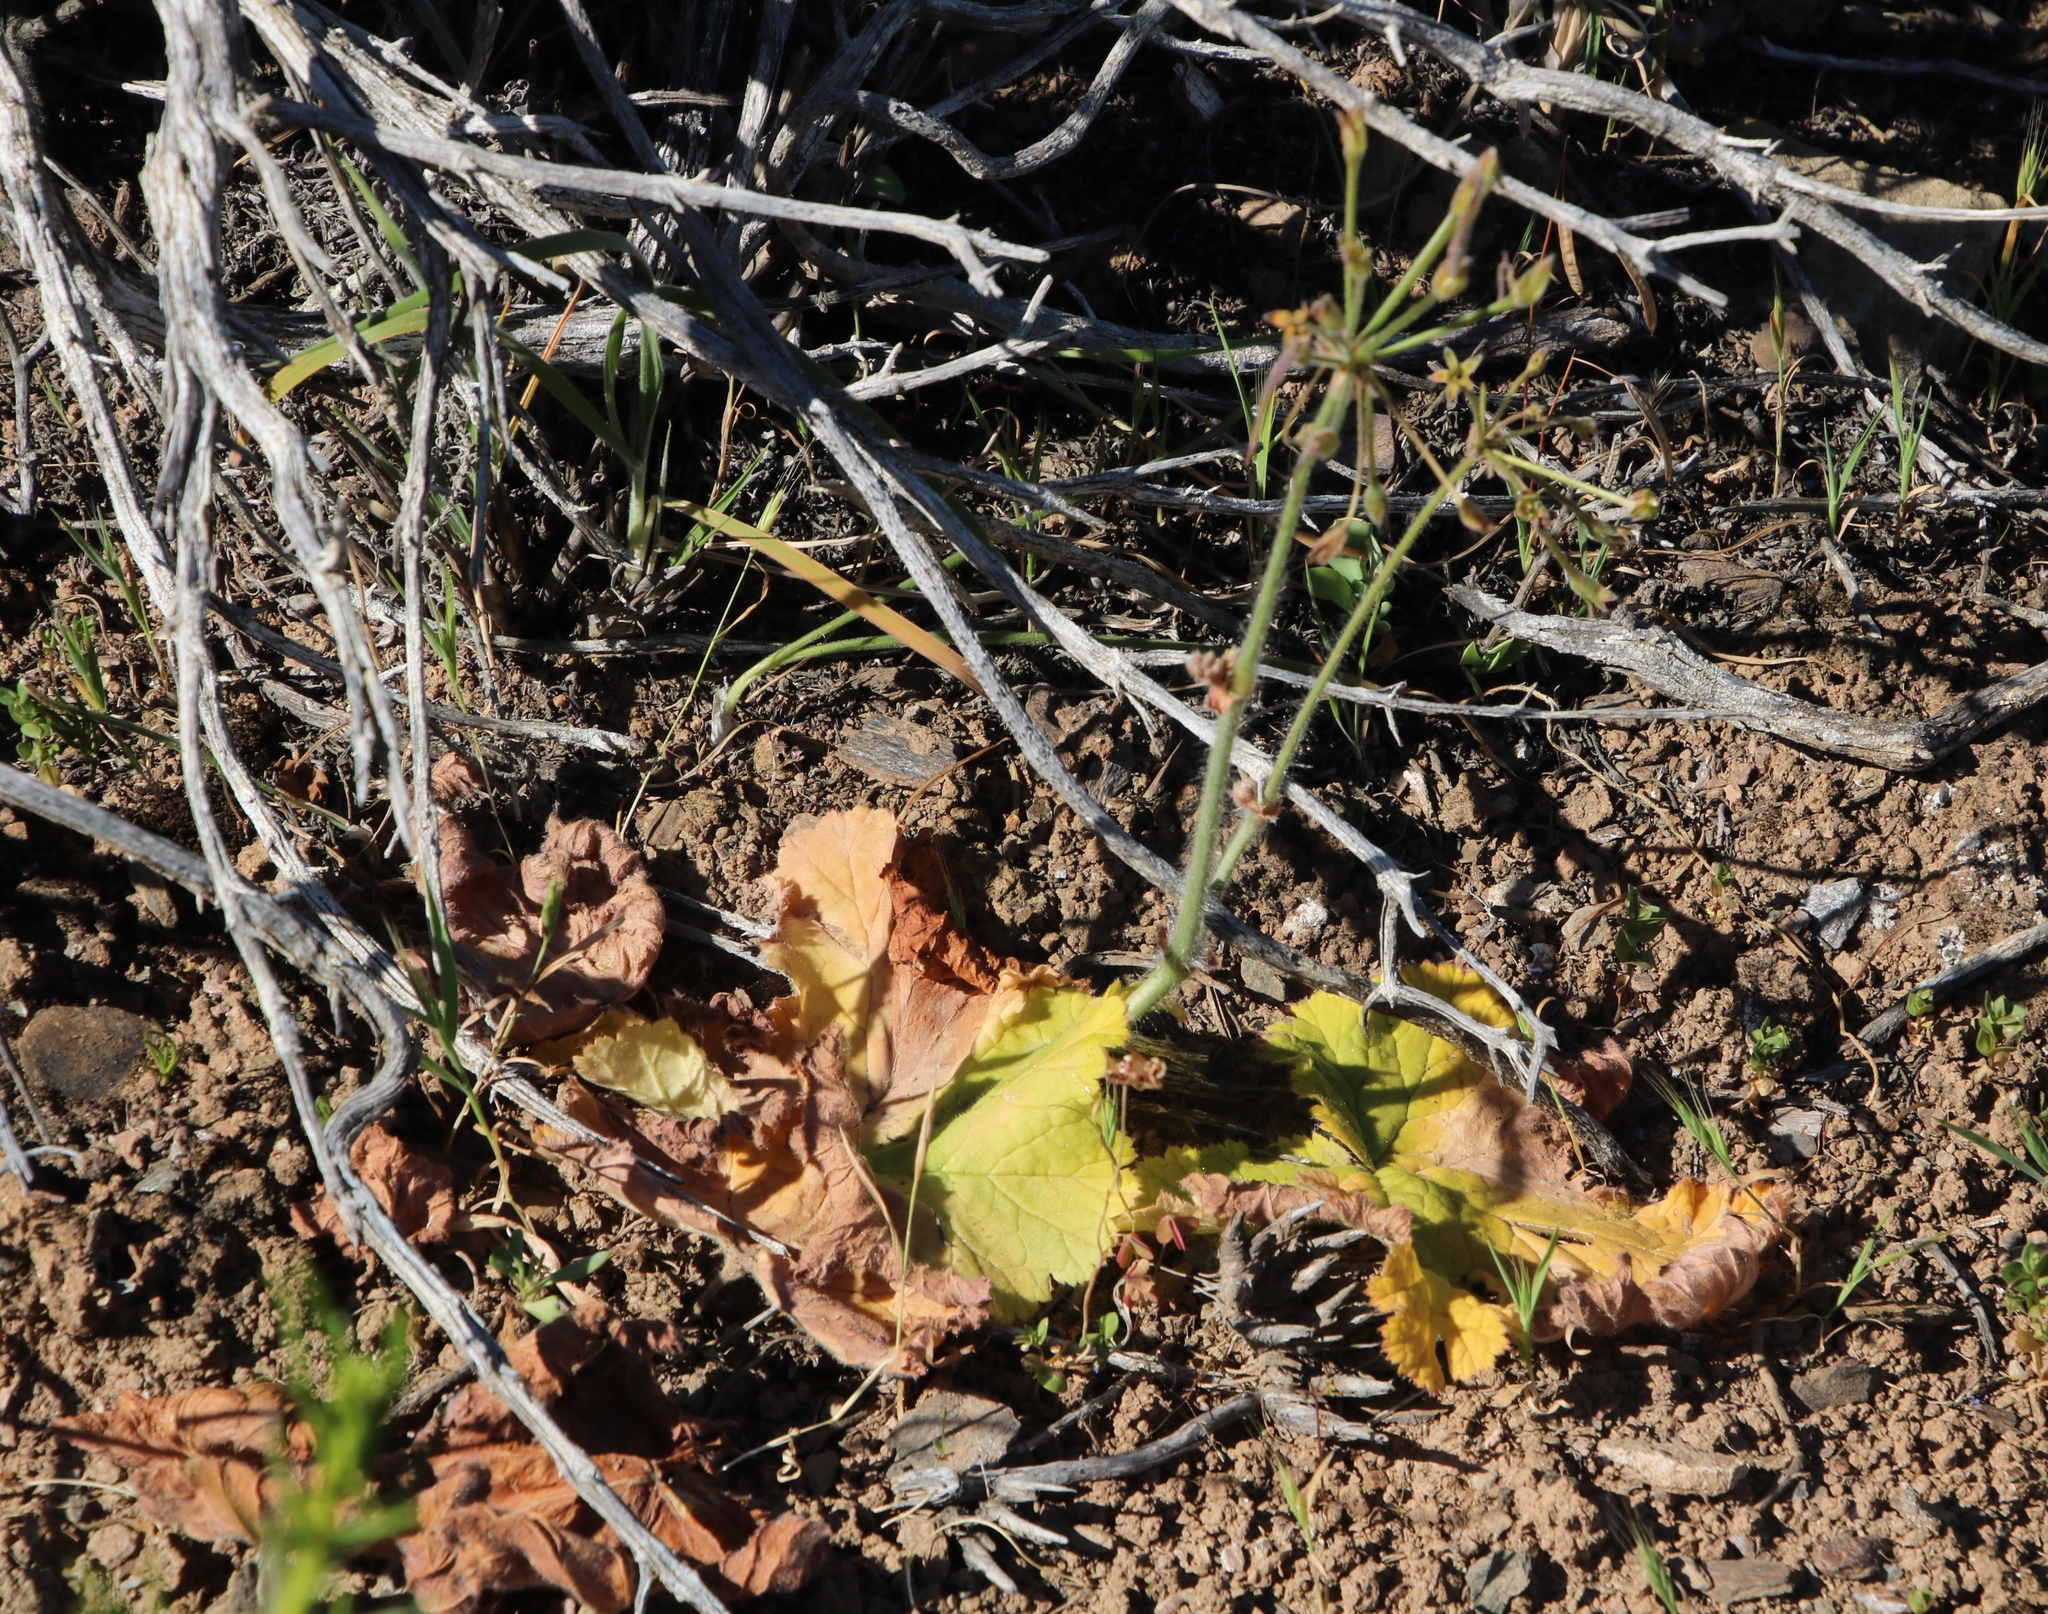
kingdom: Plantae
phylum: Tracheophyta
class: Magnoliopsida
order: Geraniales
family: Geraniaceae
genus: Pelargonium
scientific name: Pelargonium lobatum
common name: Vine-leaf pelargonium
